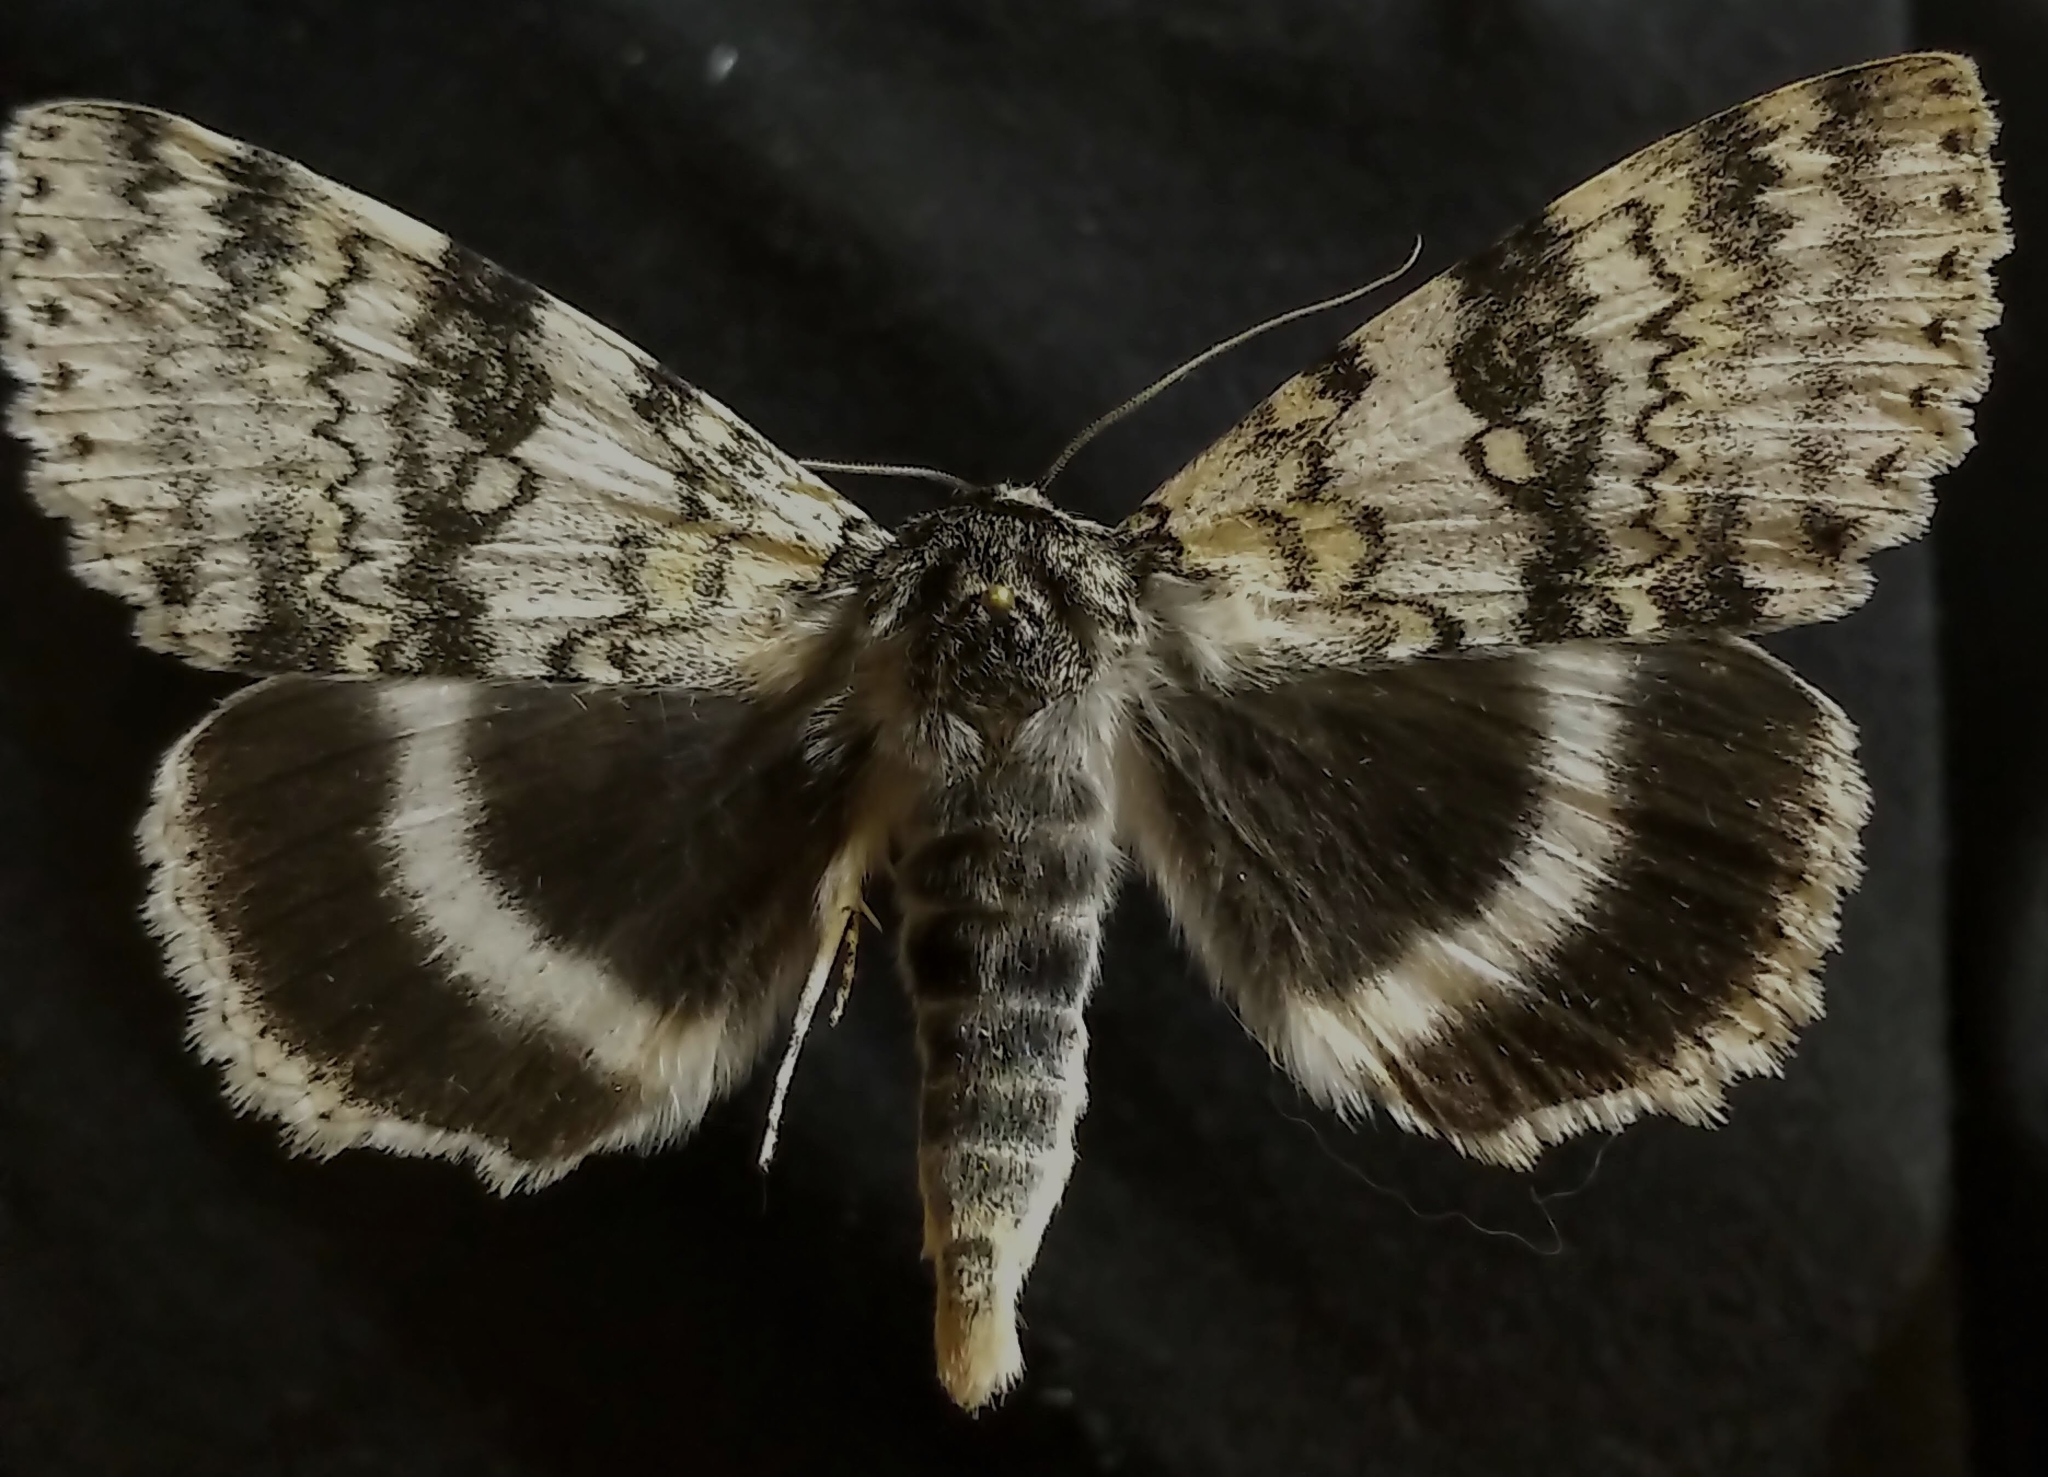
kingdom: Animalia
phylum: Arthropoda
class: Insecta
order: Lepidoptera
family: Erebidae
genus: Catocala
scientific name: Catocala relicta
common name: White underwing
